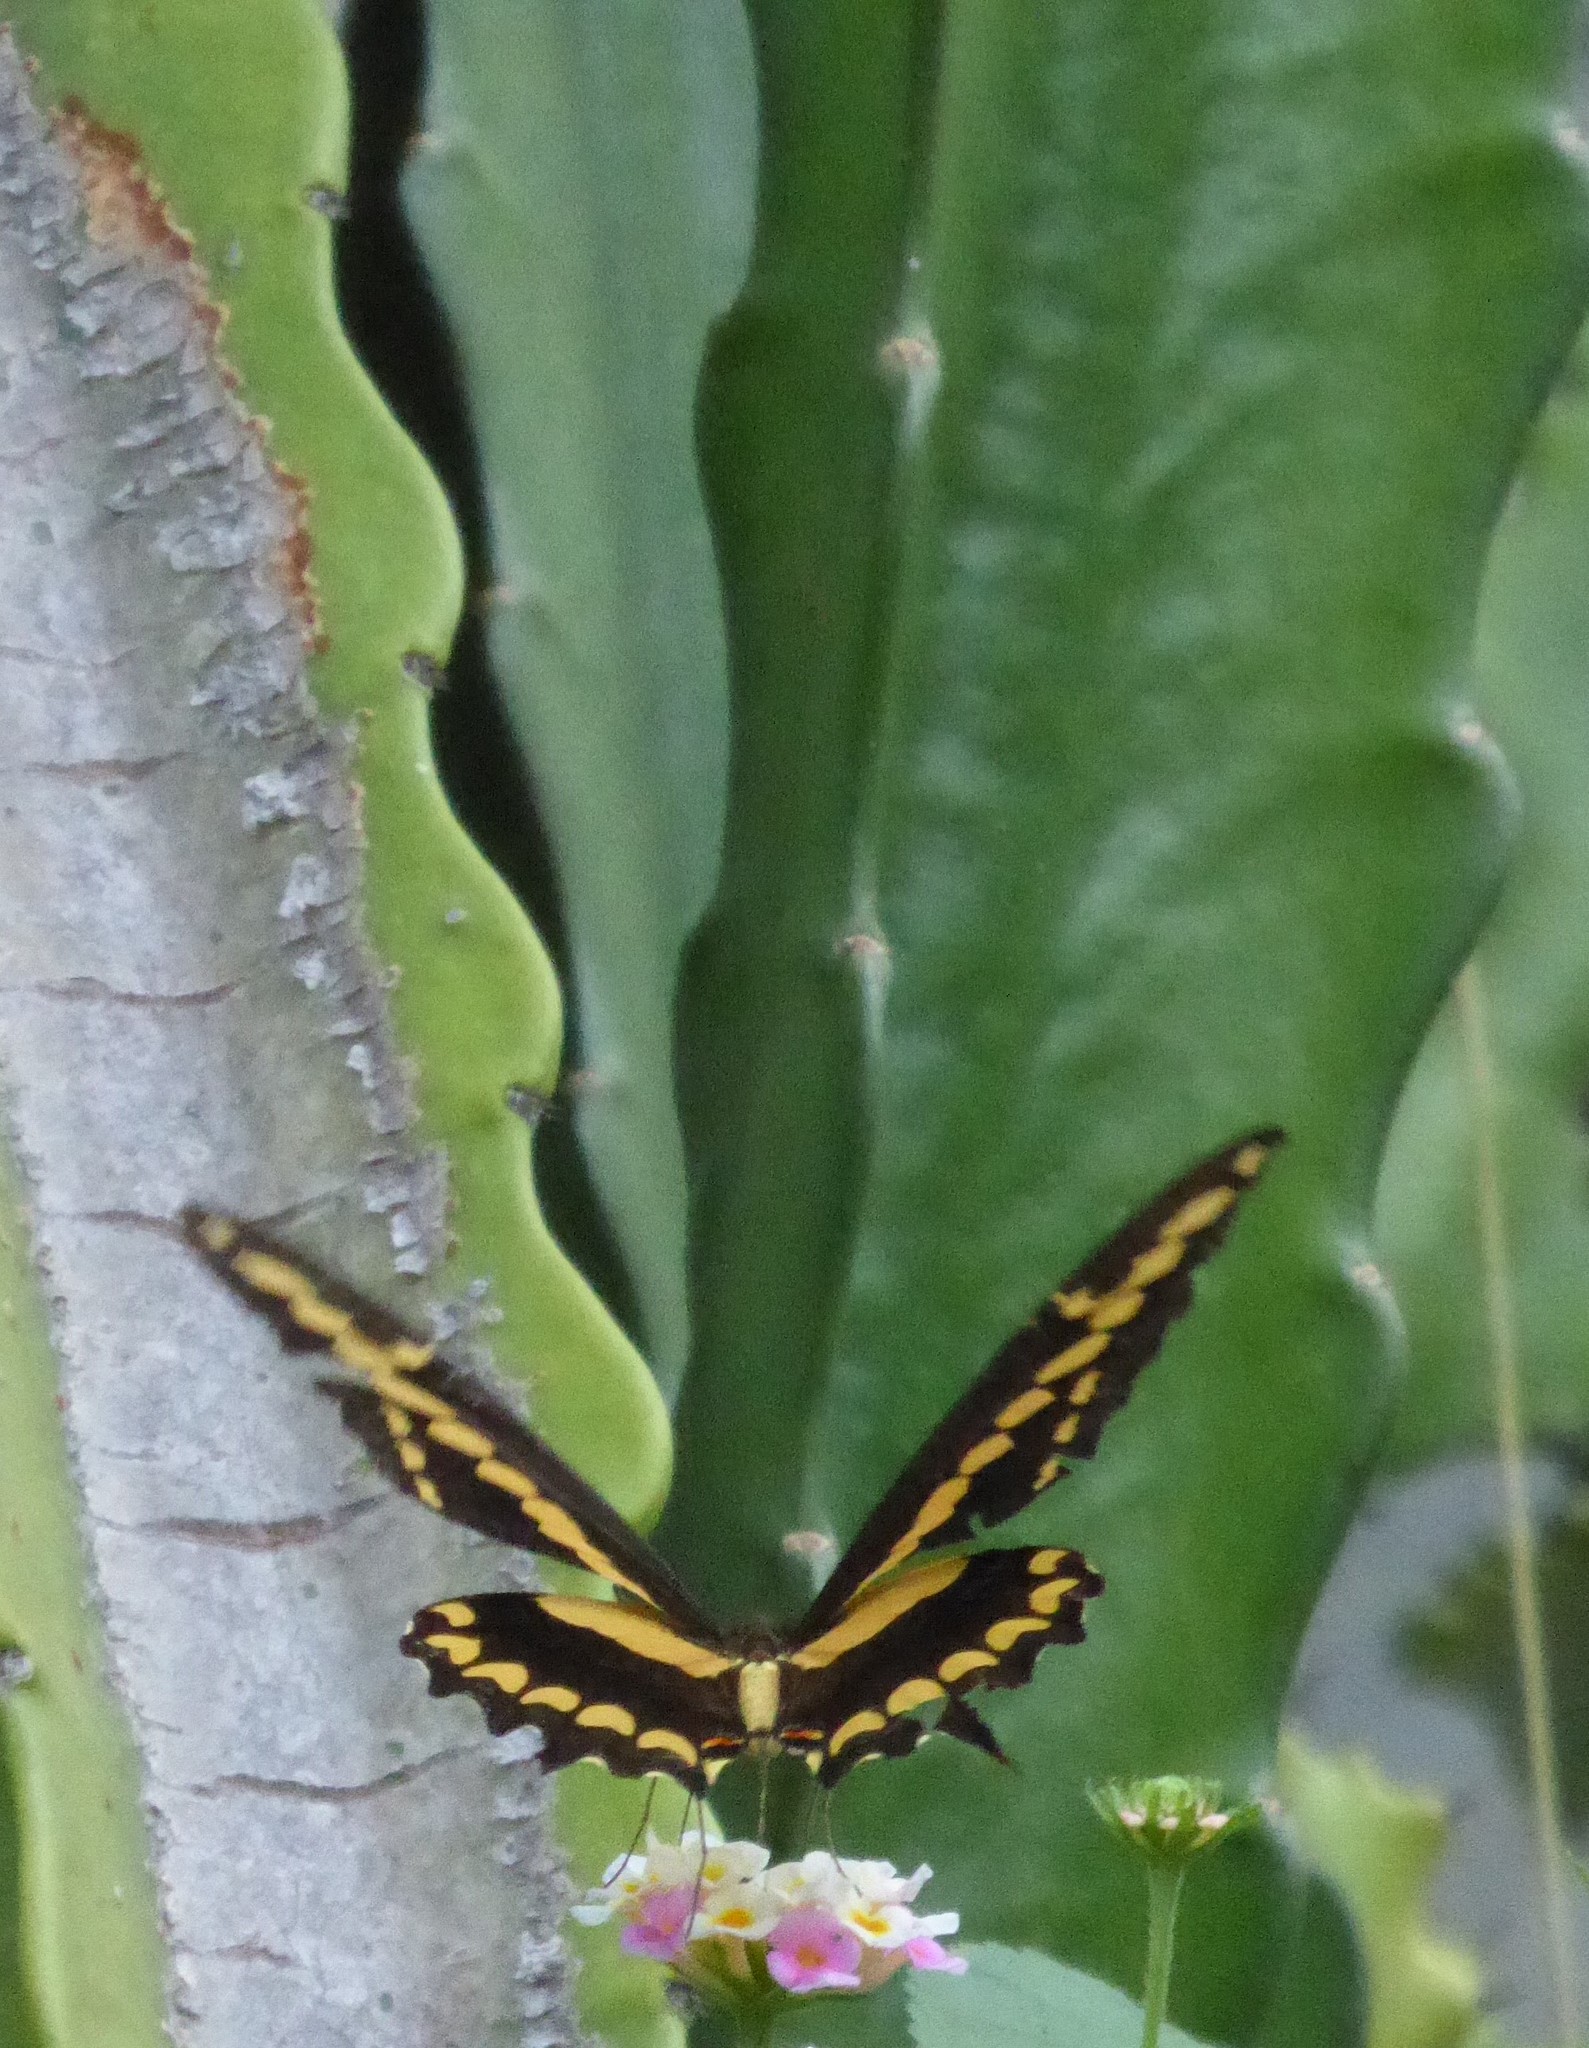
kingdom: Animalia
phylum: Arthropoda
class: Insecta
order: Lepidoptera
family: Papilionidae
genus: Papilio
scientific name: Papilio rumiko
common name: Western giant swallowtail
